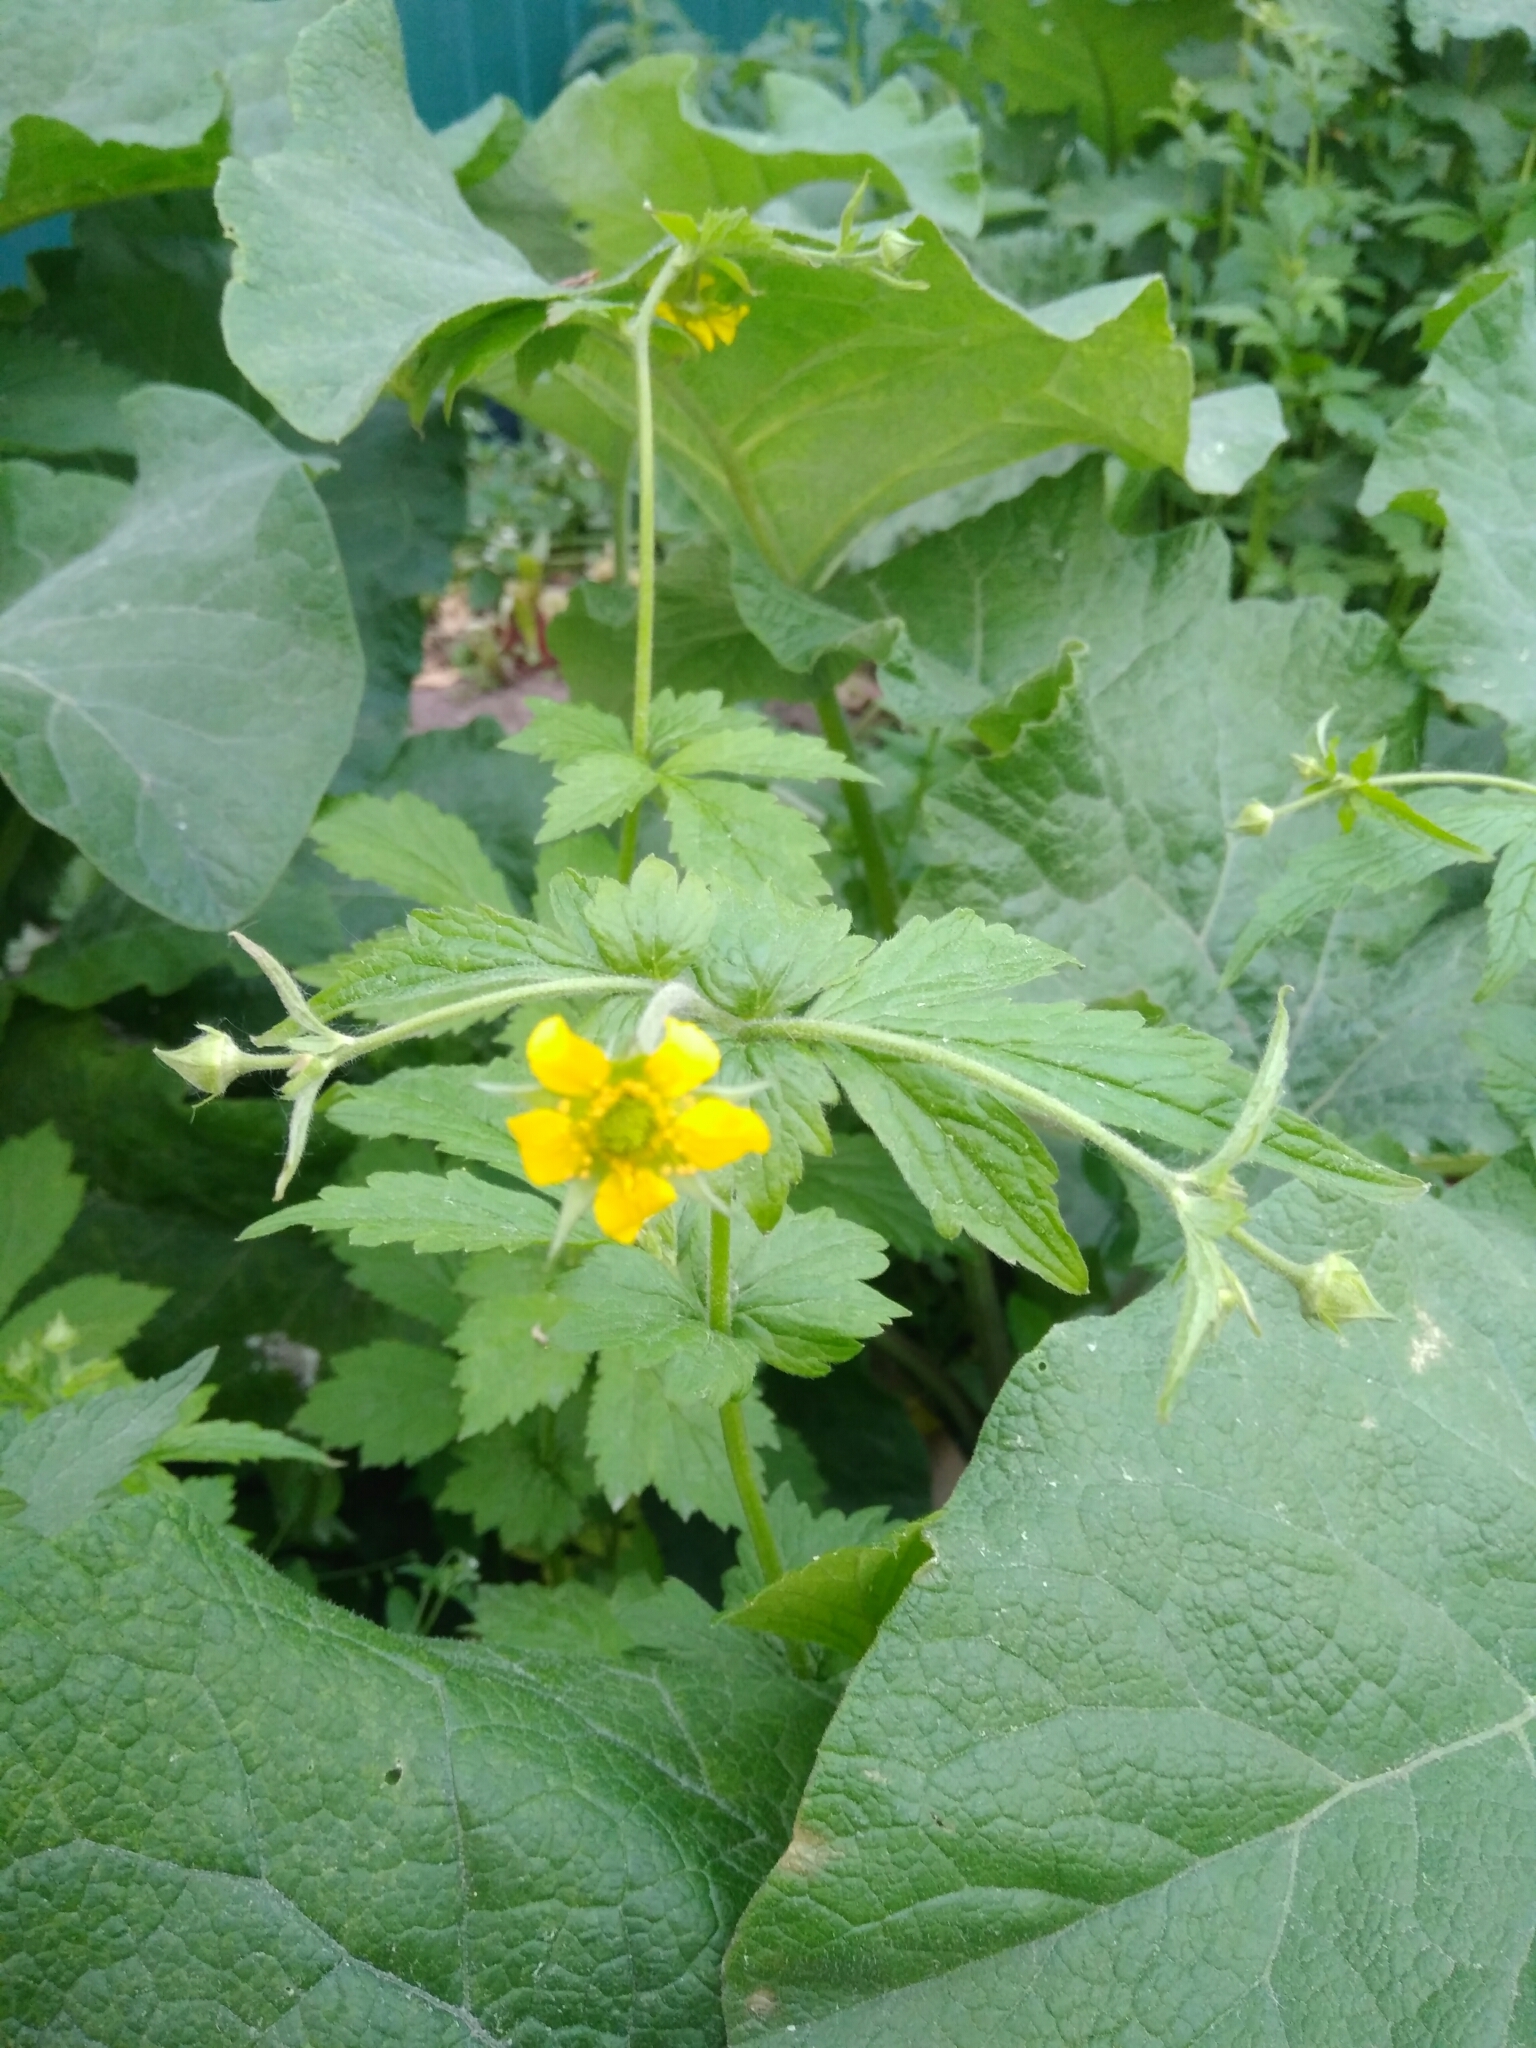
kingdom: Plantae
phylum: Tracheophyta
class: Magnoliopsida
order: Rosales
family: Rosaceae
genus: Geum
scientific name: Geum urbanum
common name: Wood avens
